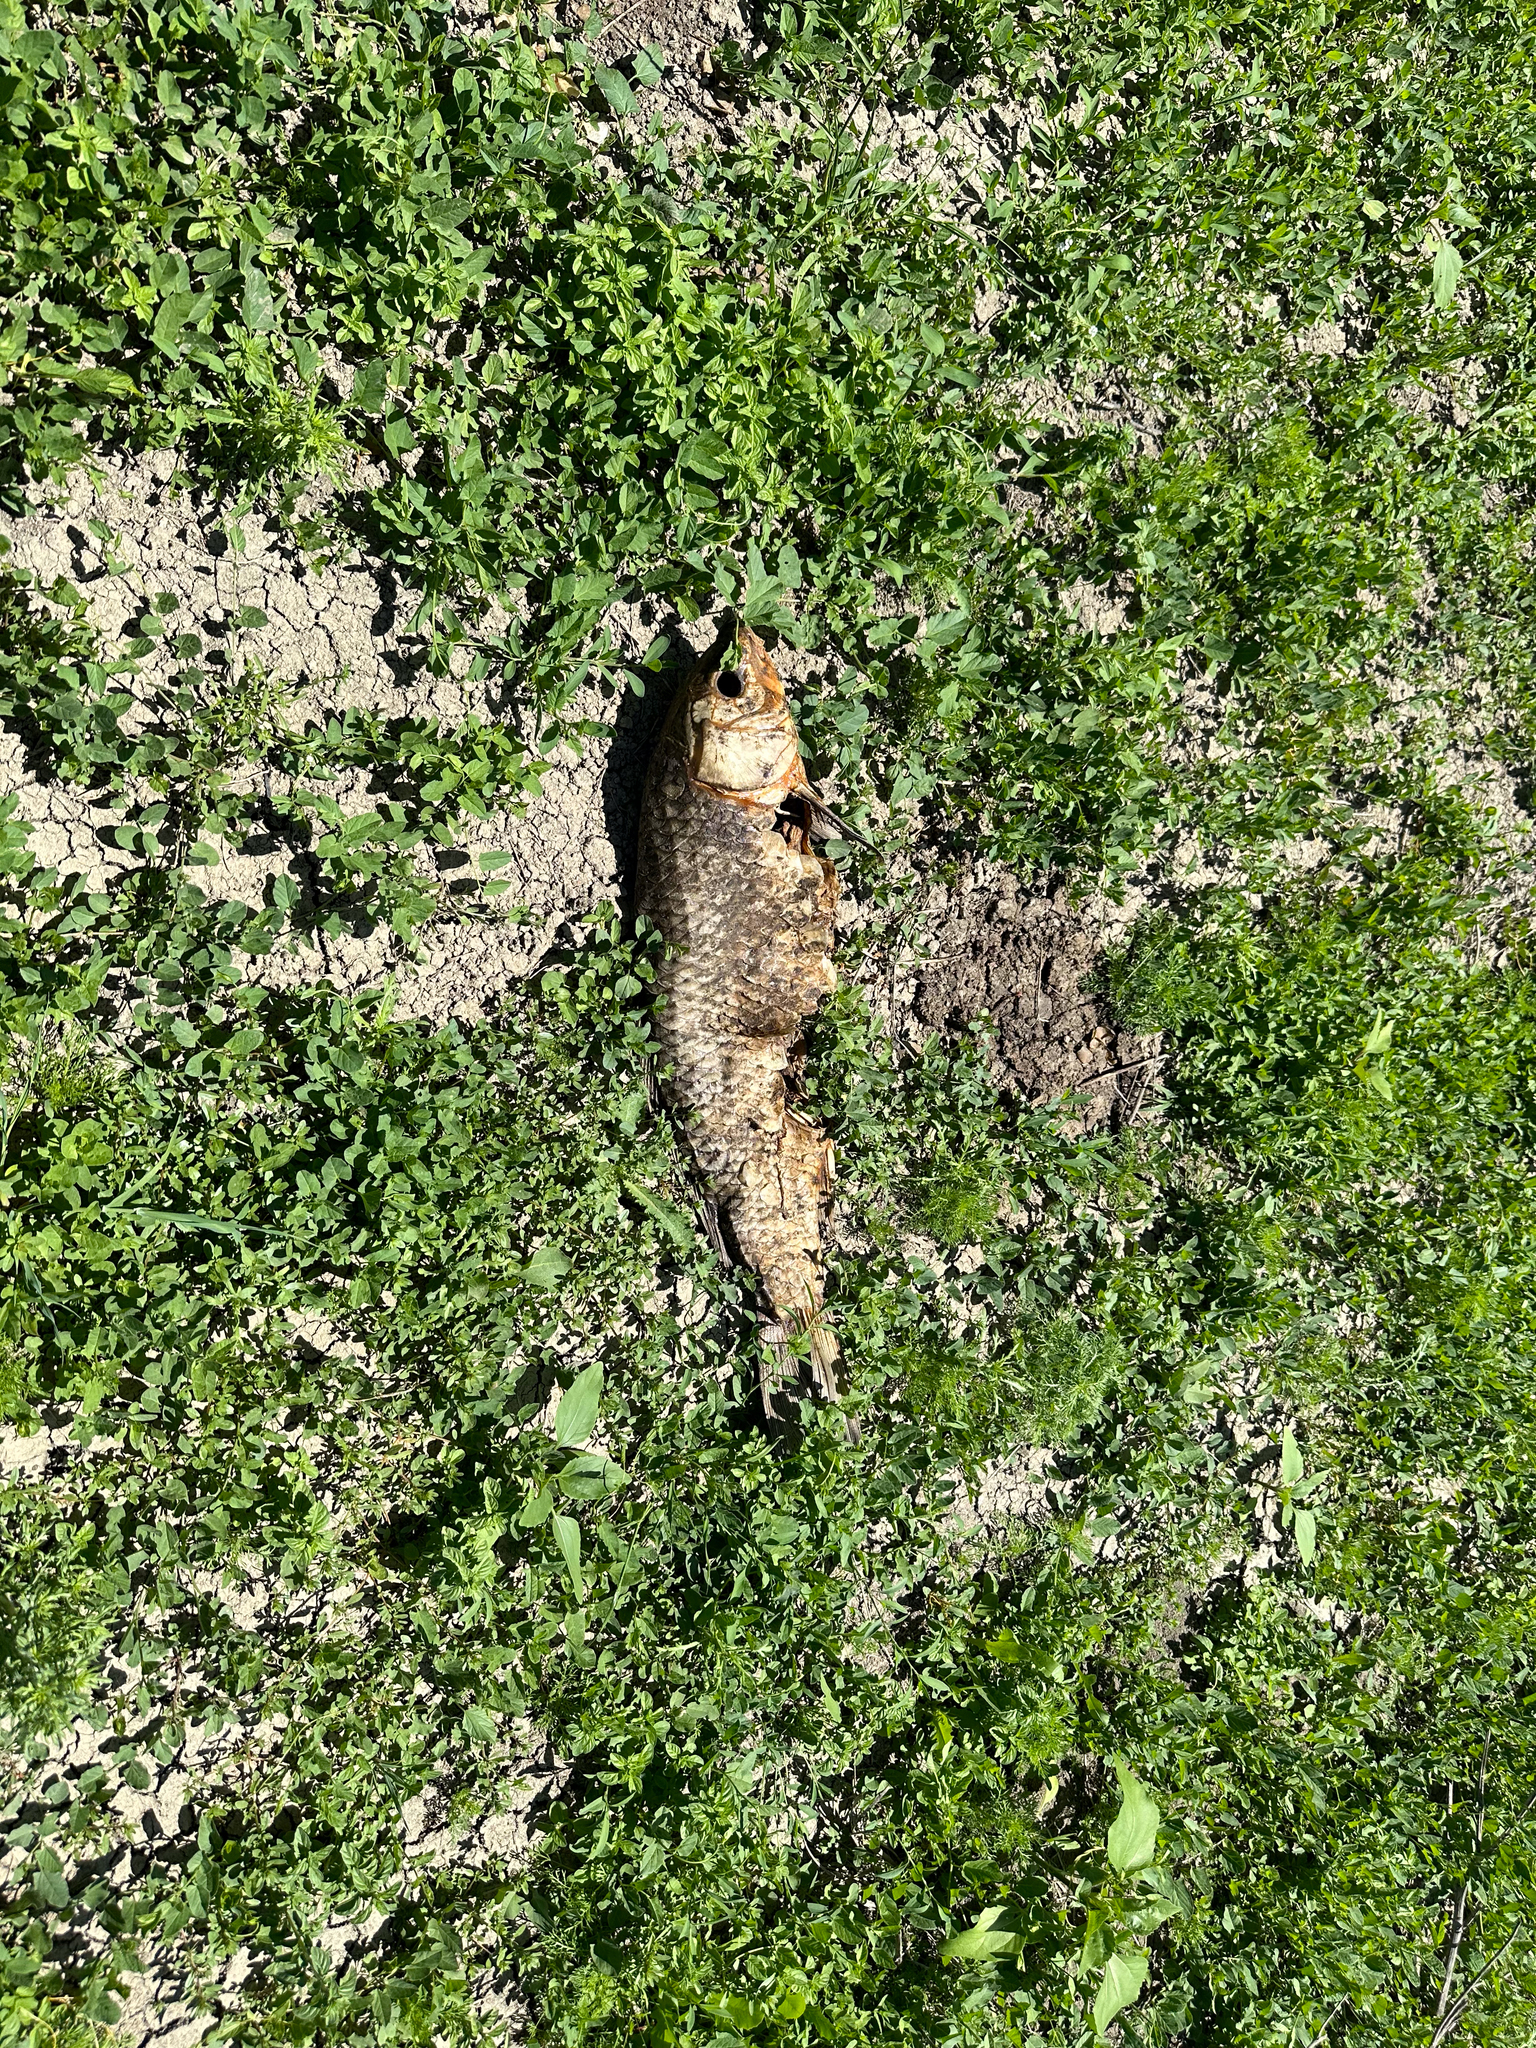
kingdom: Animalia
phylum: Chordata
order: Cypriniformes
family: Cyprinidae
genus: Cyprinus
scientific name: Cyprinus carpio
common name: Common carp
